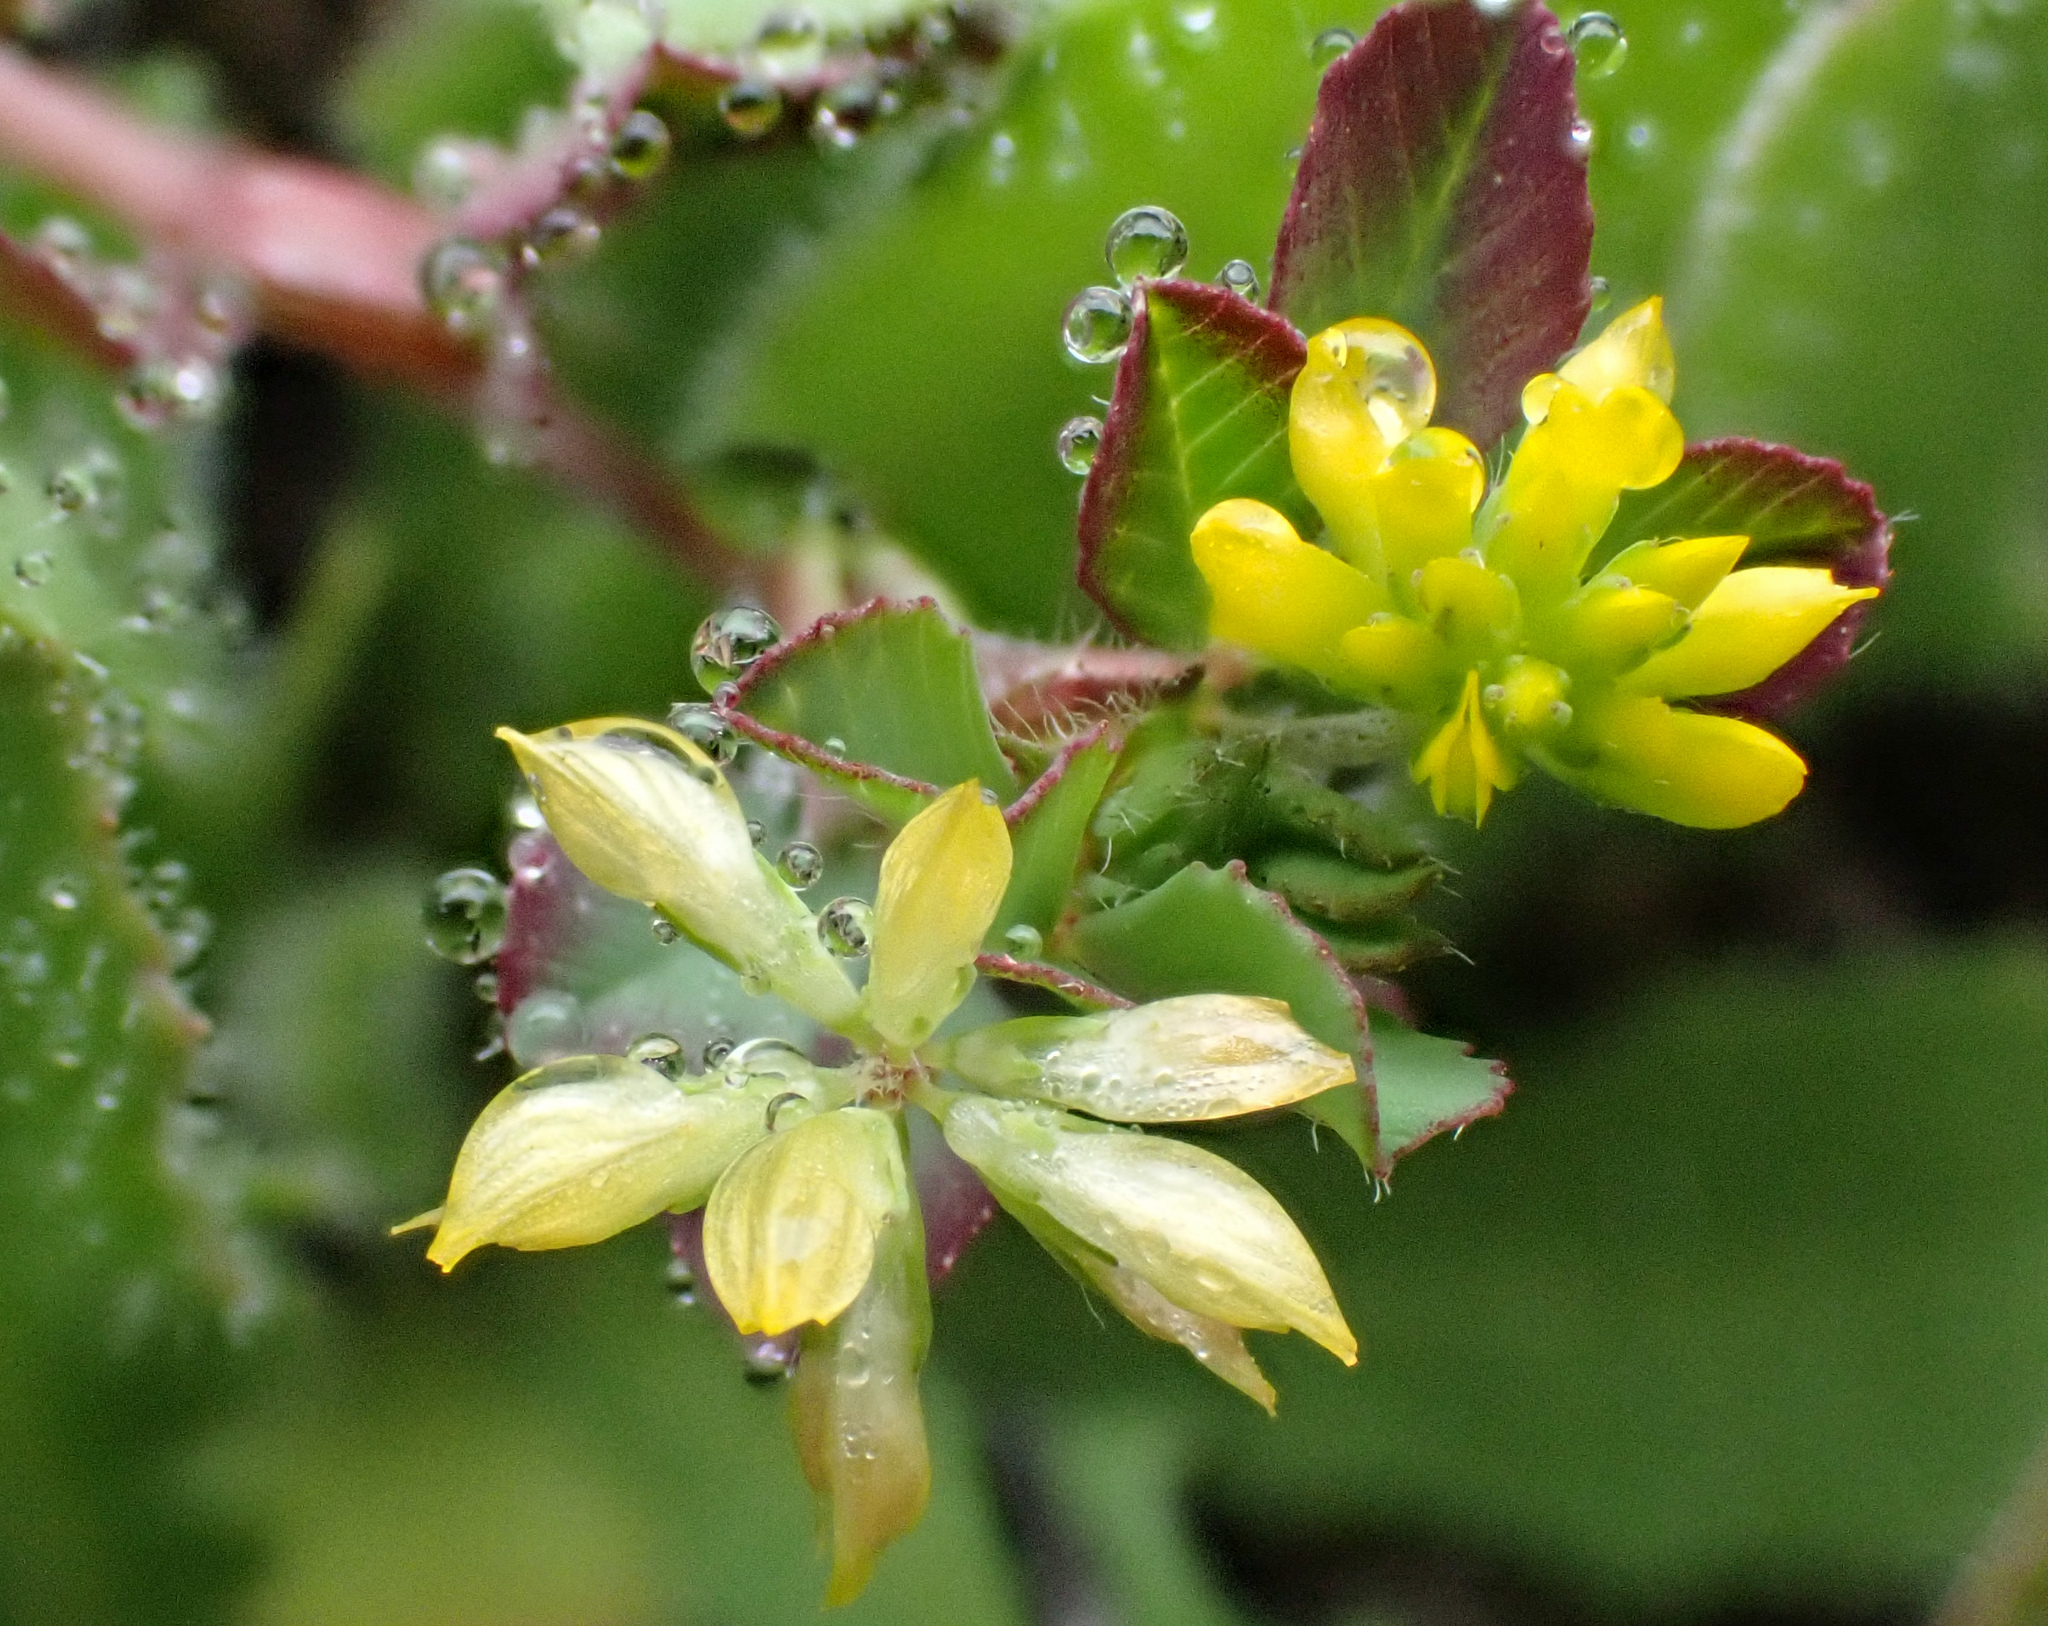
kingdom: Plantae
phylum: Tracheophyta
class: Magnoliopsida
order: Fabales
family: Fabaceae
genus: Trifolium
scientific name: Trifolium dubium
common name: Suckling clover
